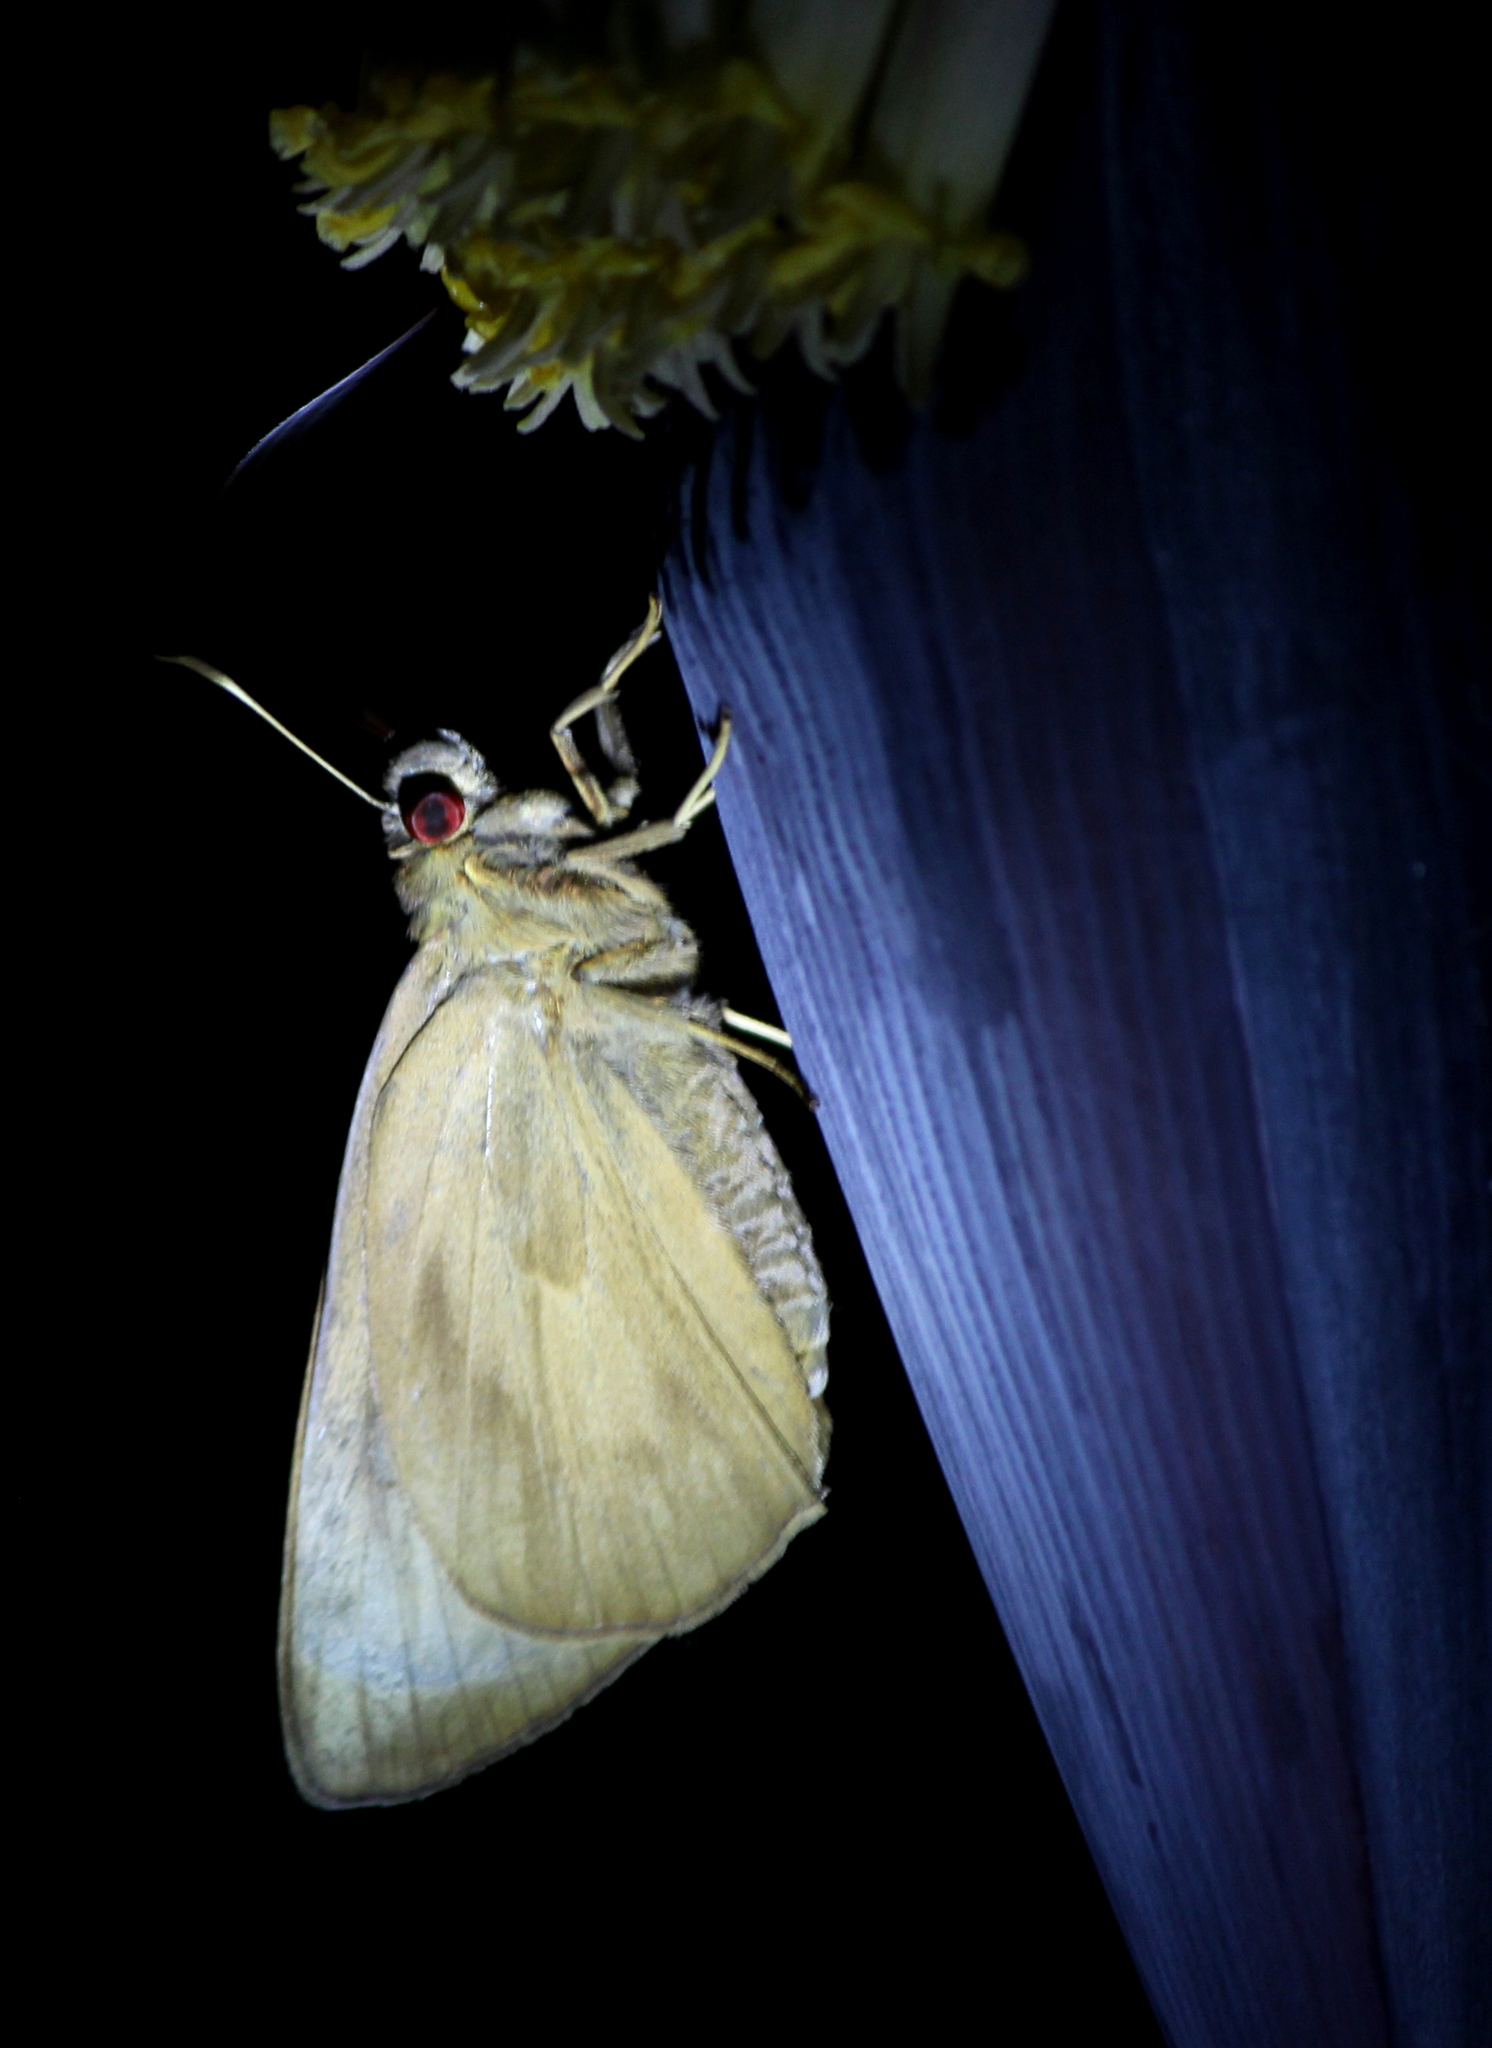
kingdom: Animalia
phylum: Arthropoda
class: Insecta
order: Lepidoptera
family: Hesperiidae
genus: Erionota
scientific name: Erionota torus
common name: Rounded palm-redeye
